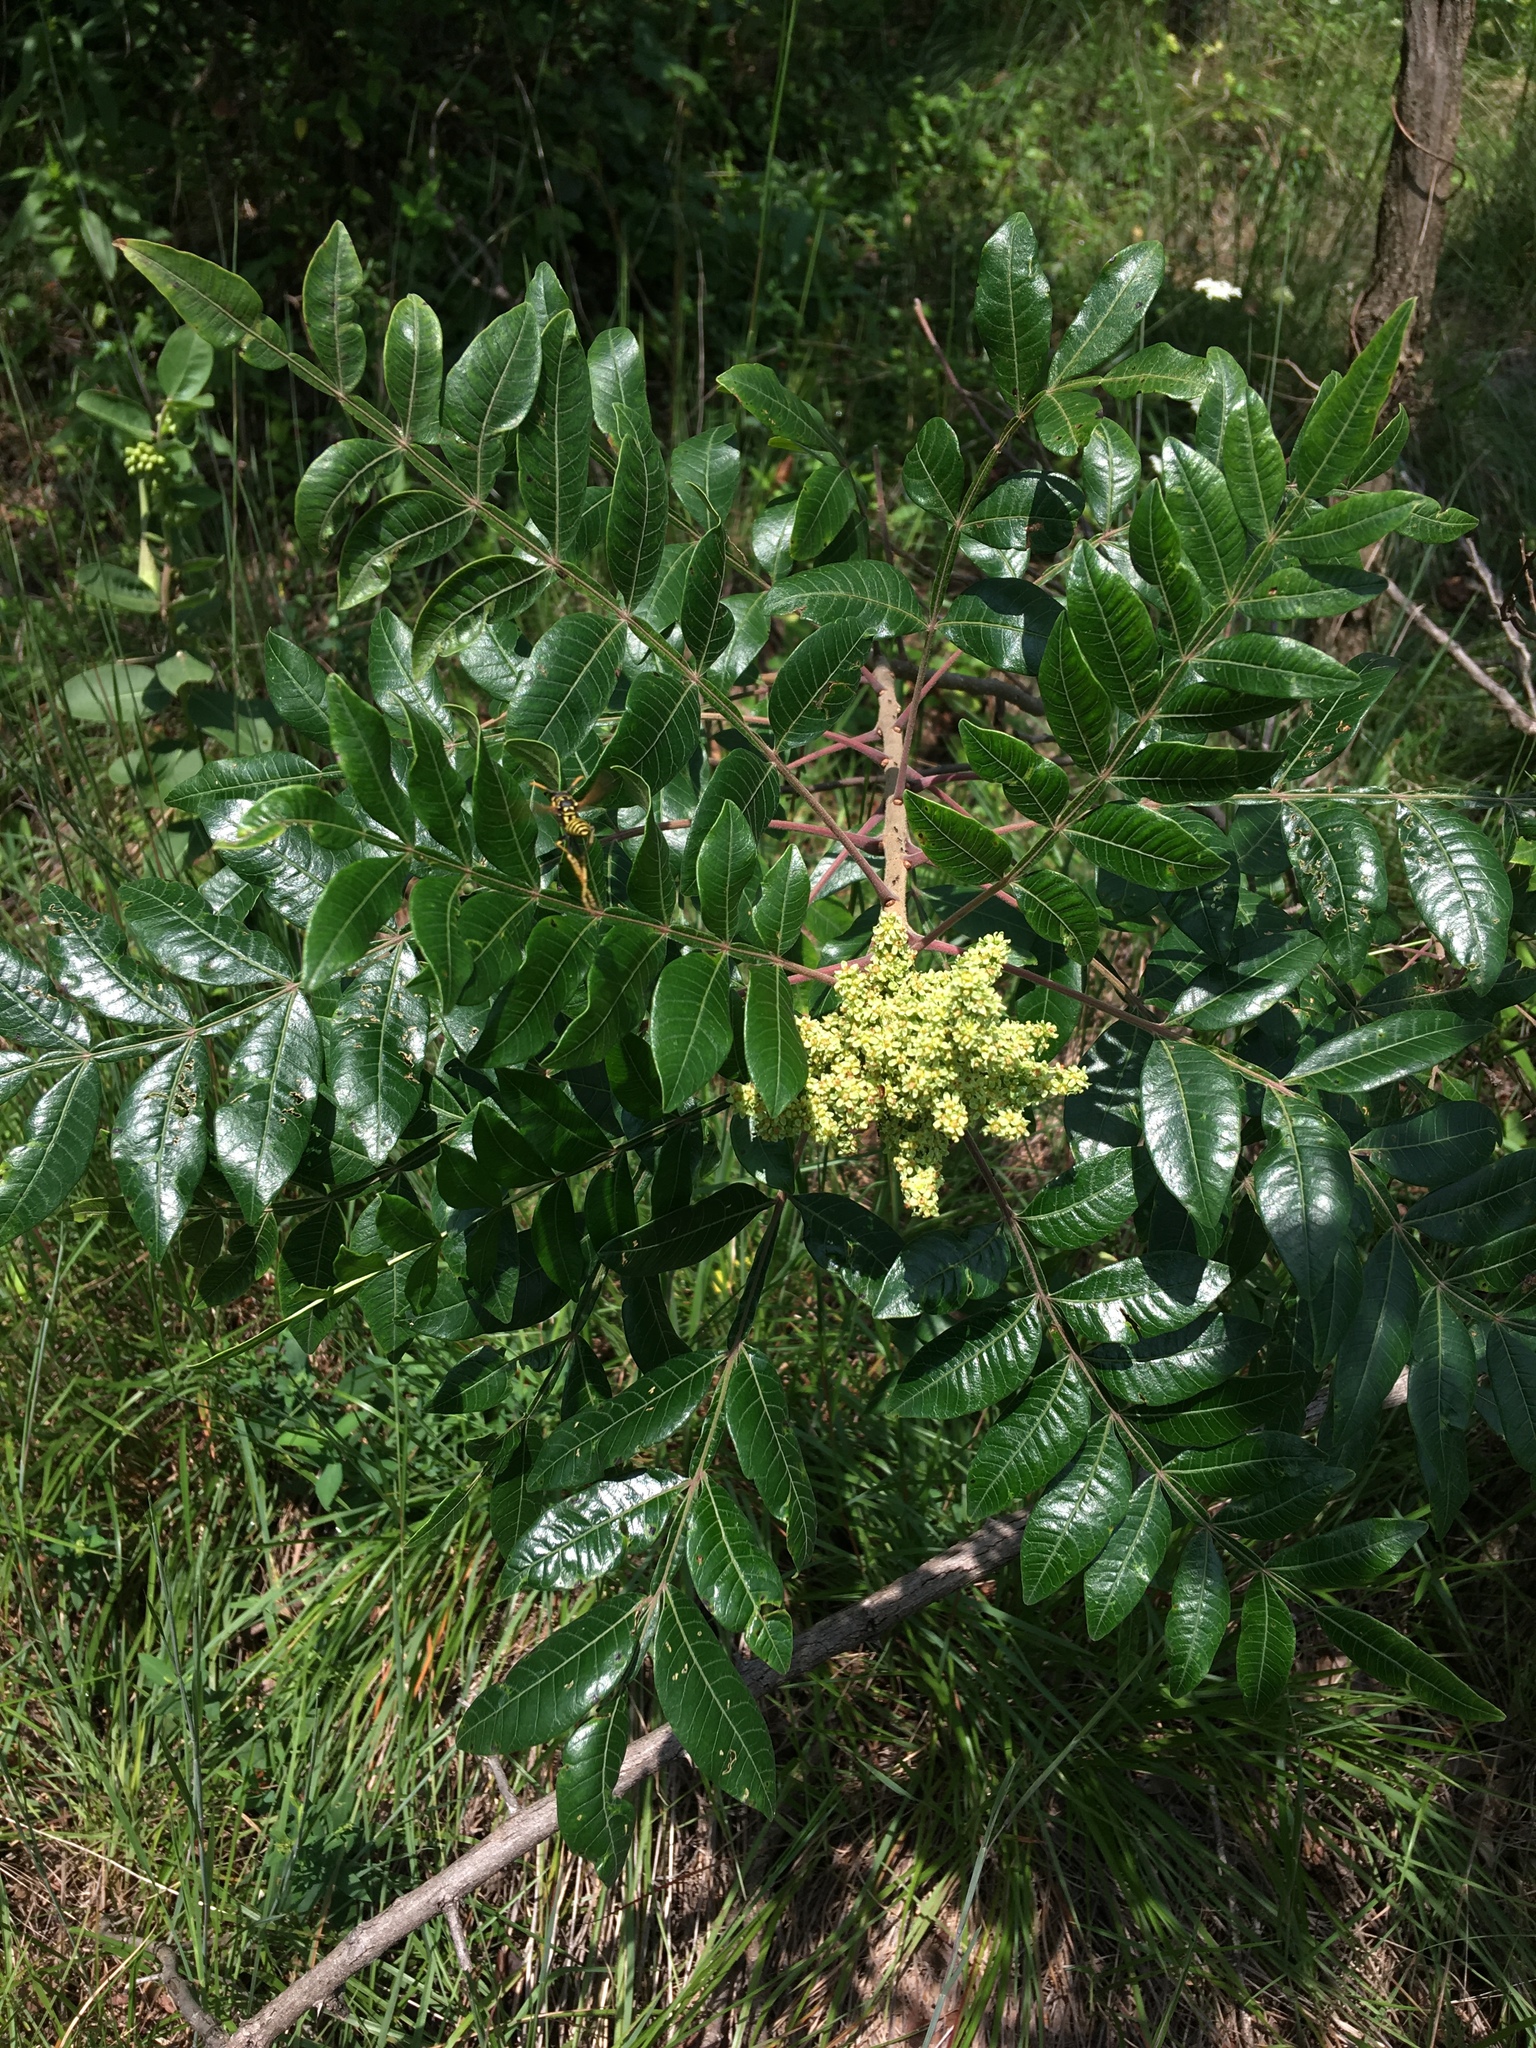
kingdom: Plantae
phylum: Tracheophyta
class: Magnoliopsida
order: Sapindales
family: Anacardiaceae
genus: Rhus
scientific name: Rhus copallina
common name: Shining sumac
